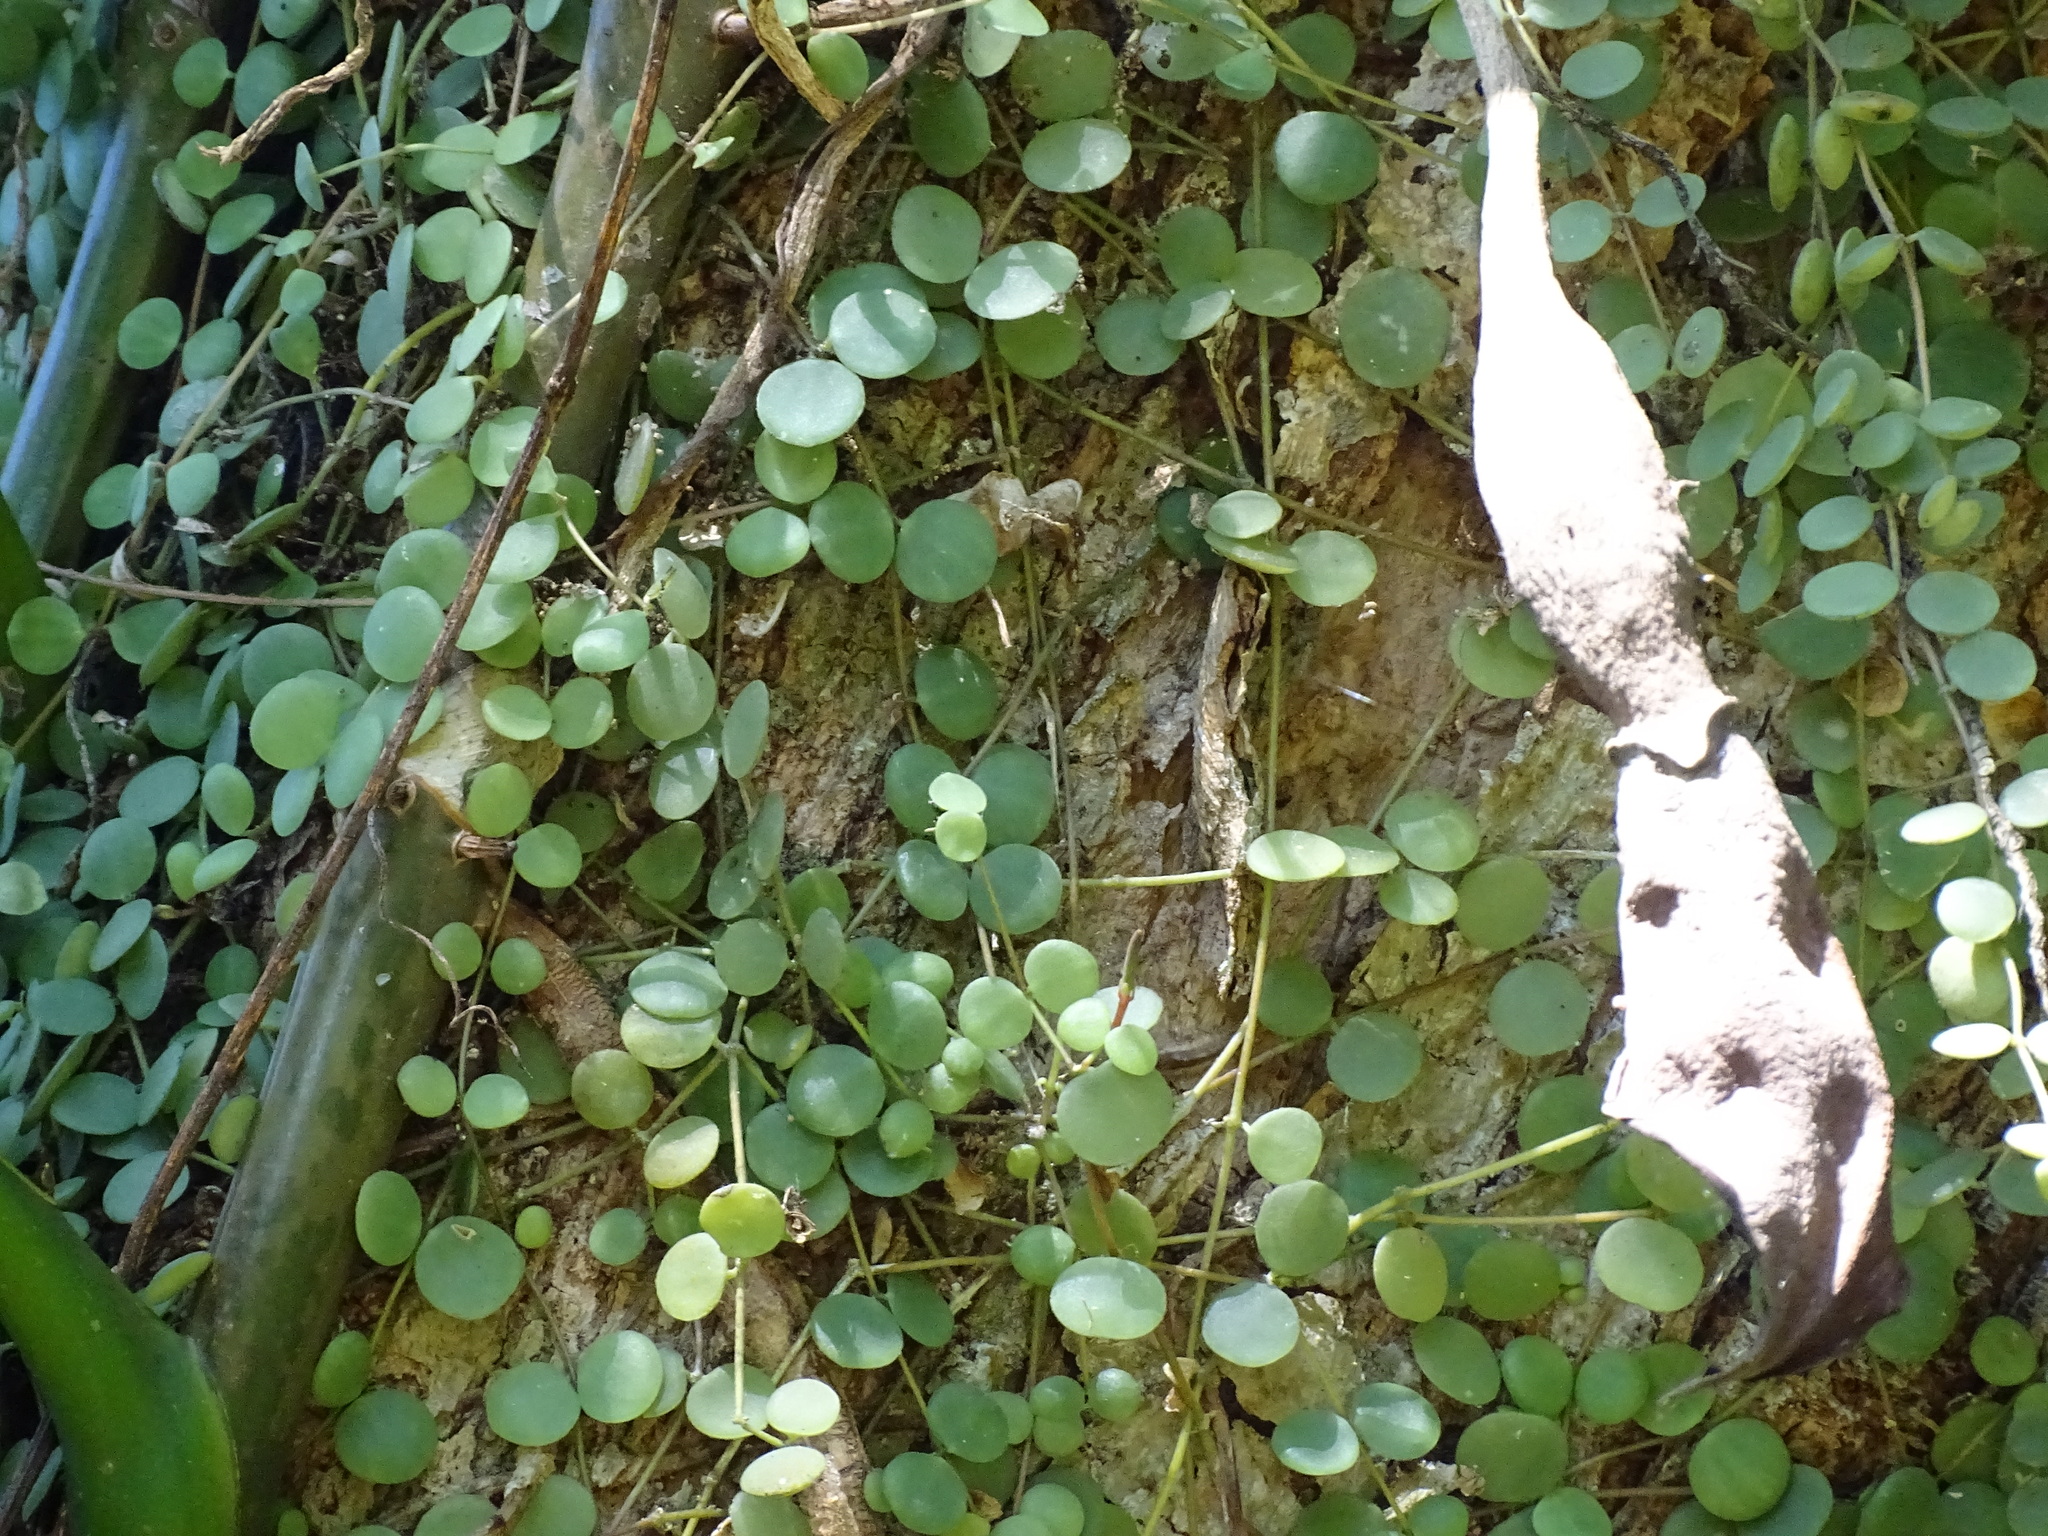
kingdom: Plantae
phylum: Tracheophyta
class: Magnoliopsida
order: Piperales
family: Piperaceae
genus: Peperomia
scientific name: Peperomia cyclophylla
